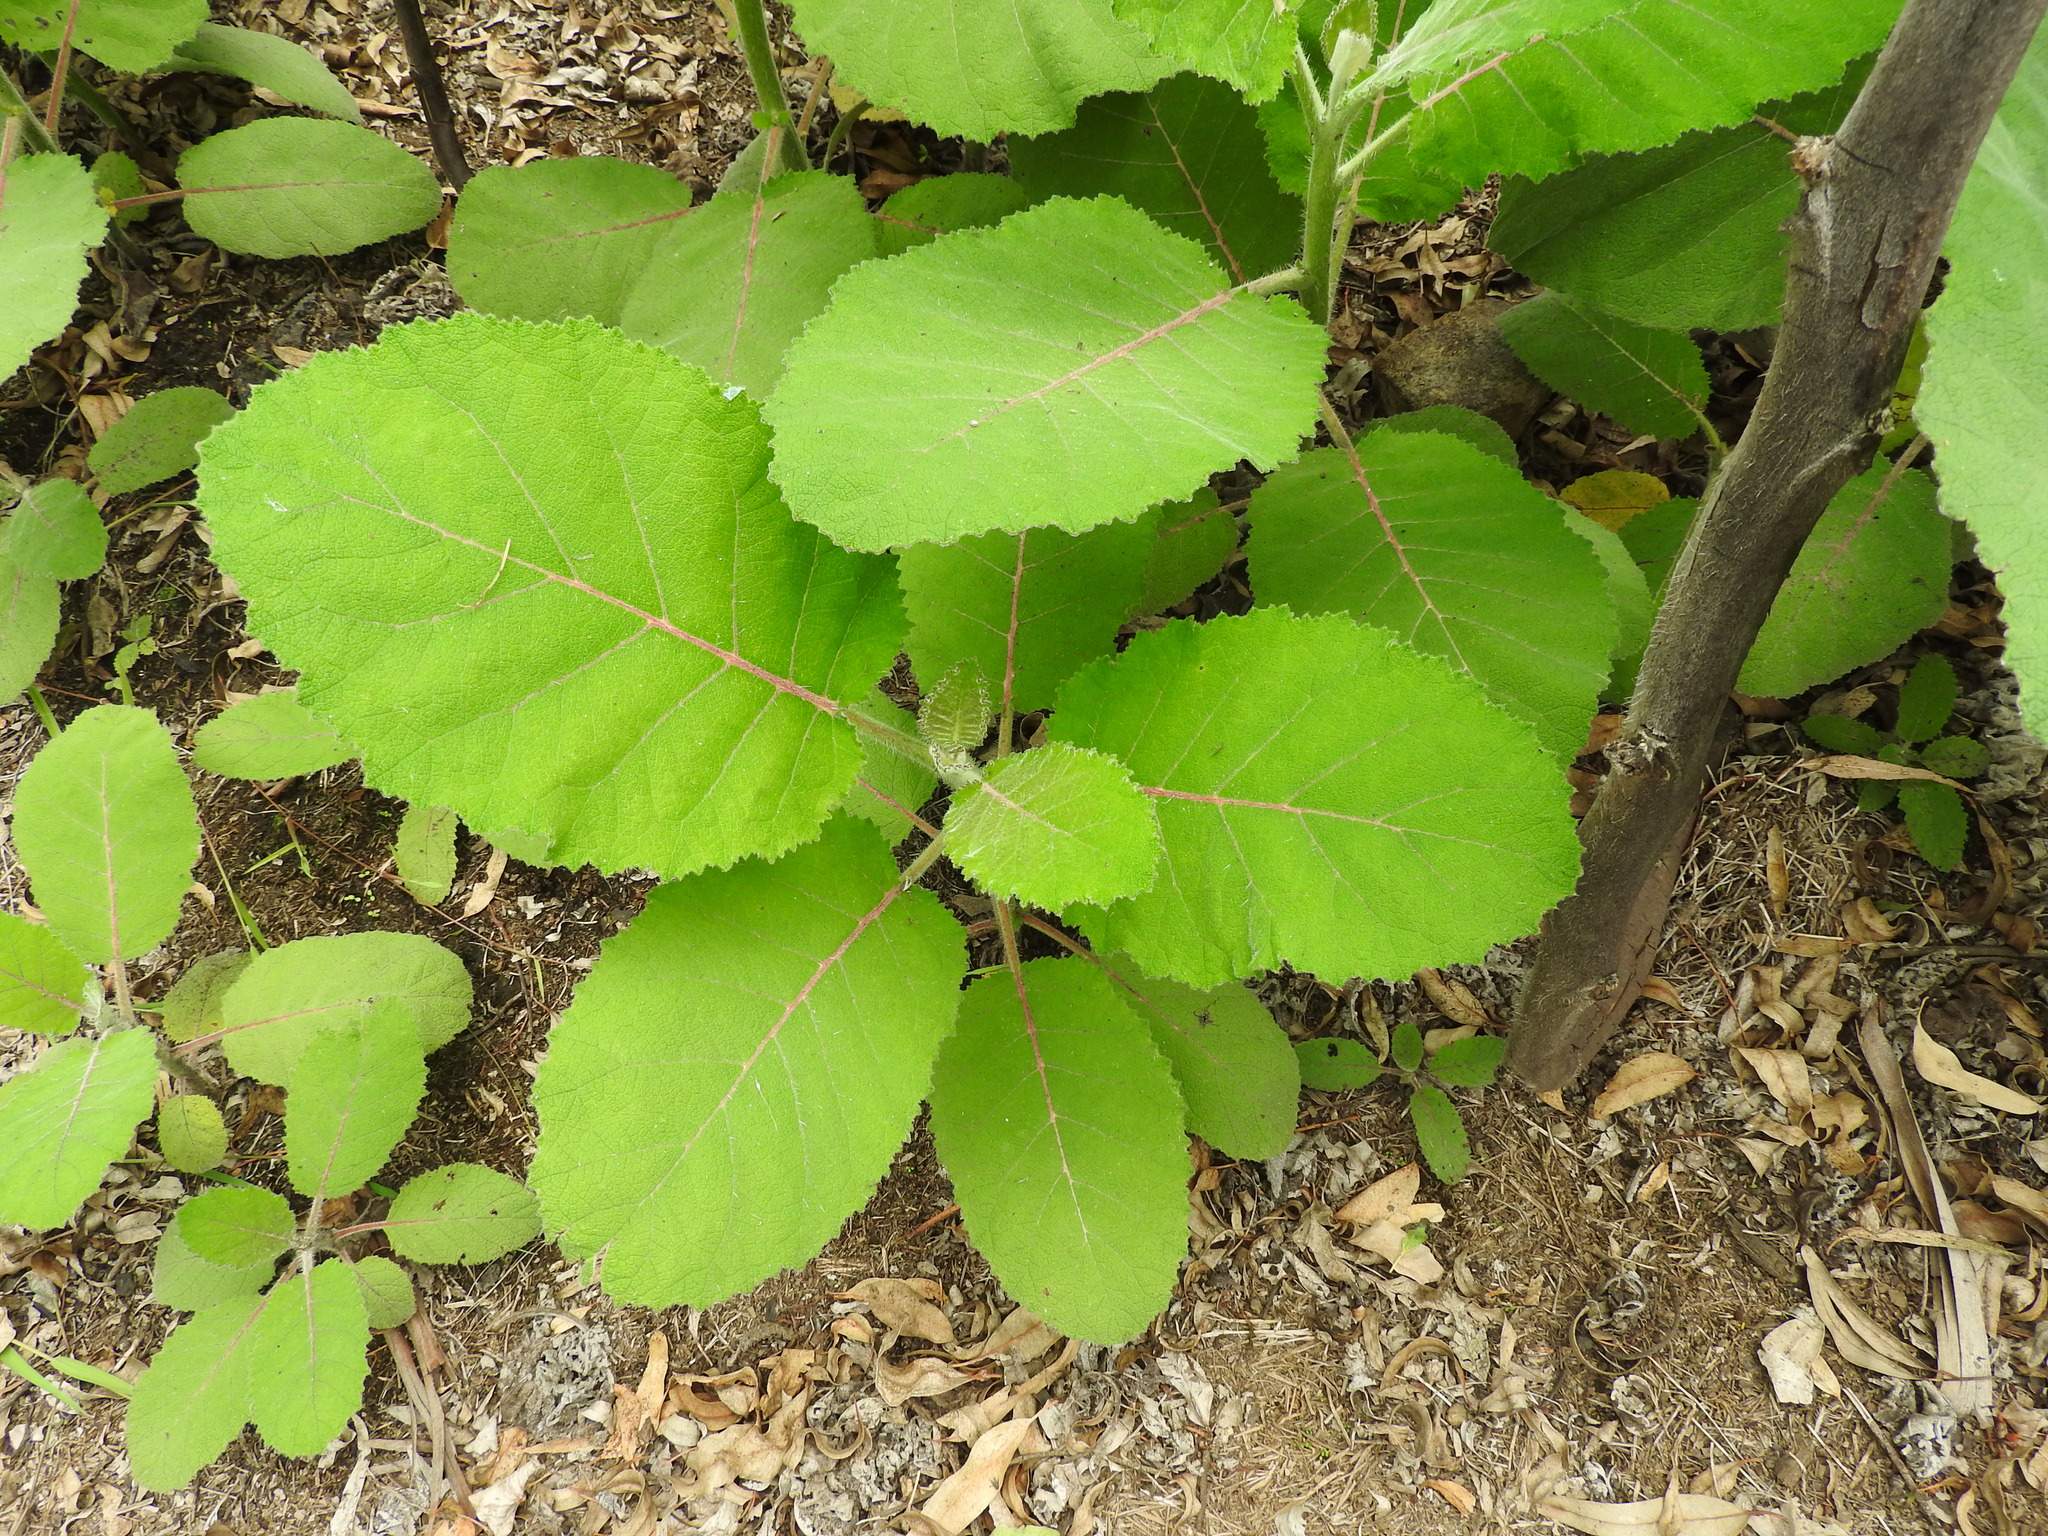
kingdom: Plantae
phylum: Tracheophyta
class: Magnoliopsida
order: Boraginales
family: Namaceae
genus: Wigandia
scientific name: Wigandia urens
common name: Caracus wigandia
